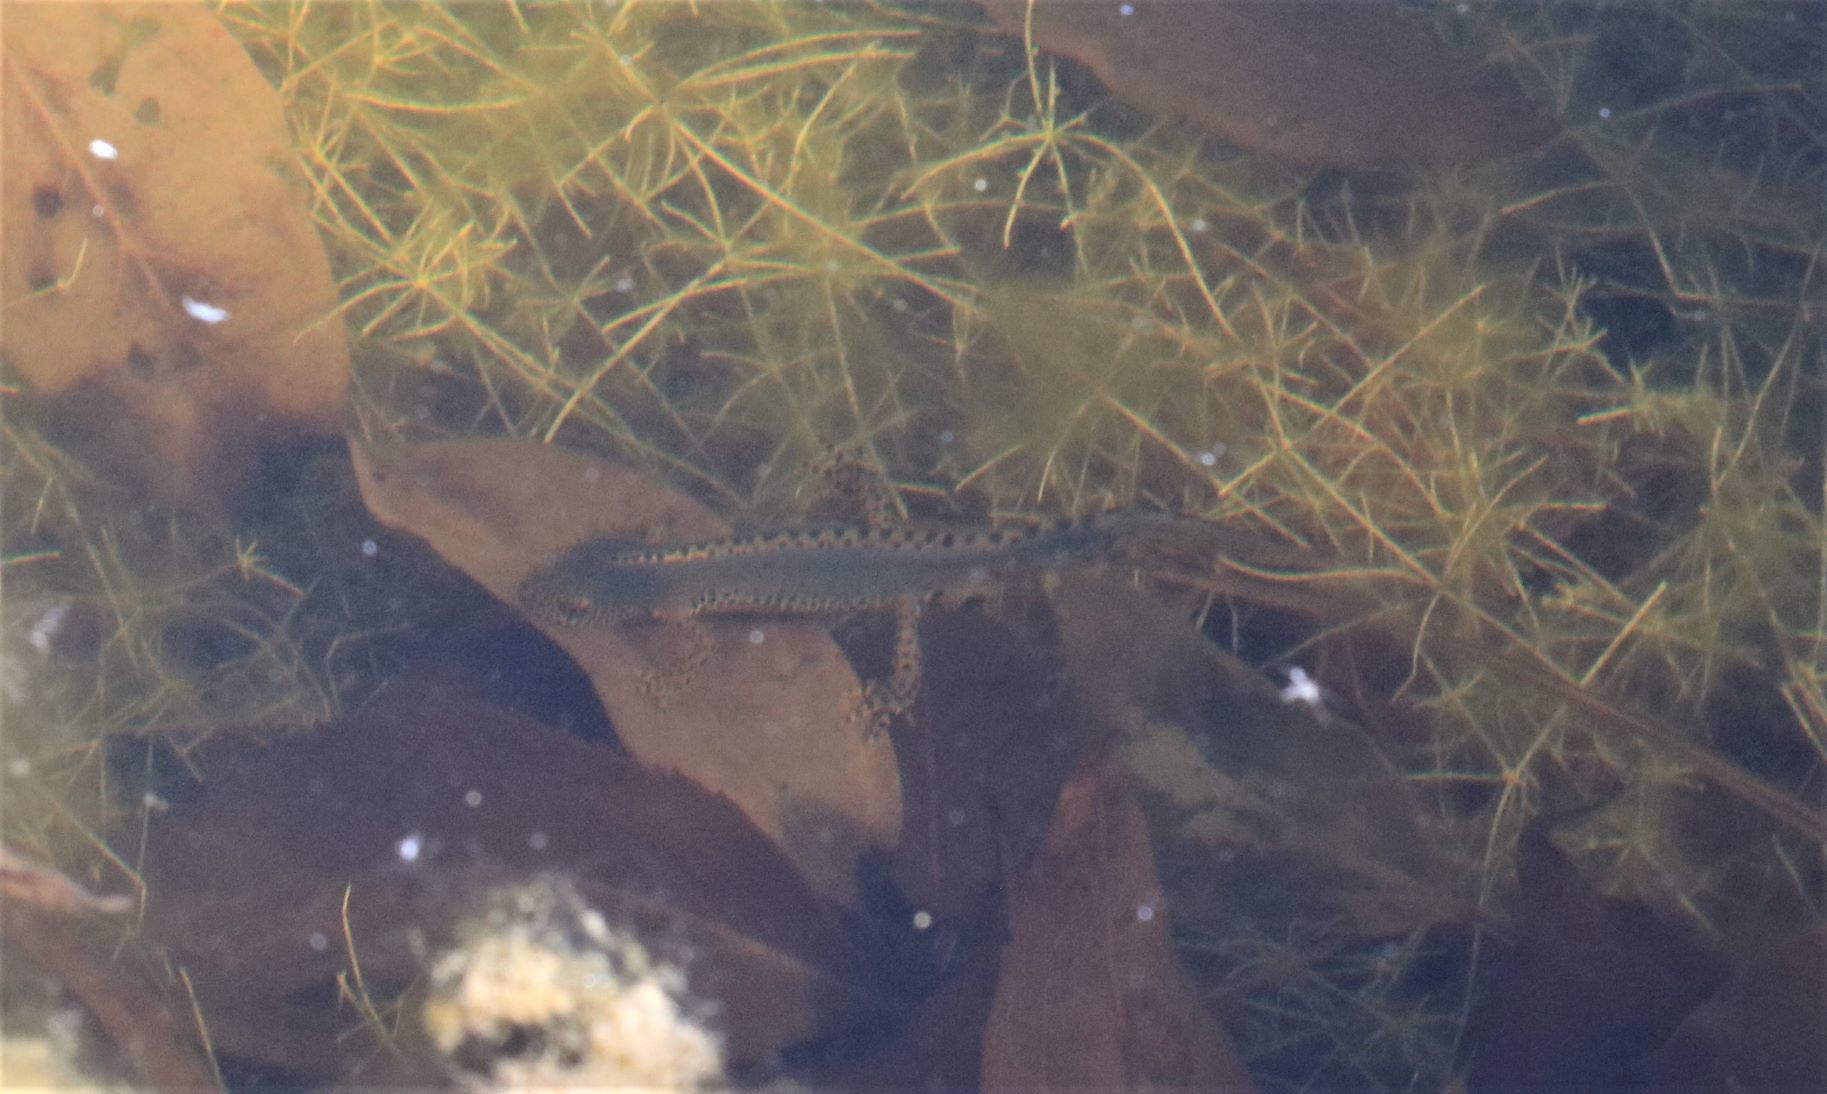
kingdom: Animalia
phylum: Chordata
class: Amphibia
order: Caudata
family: Salamandridae
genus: Ichthyosaura
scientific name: Ichthyosaura alpestris
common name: Alpine newt
